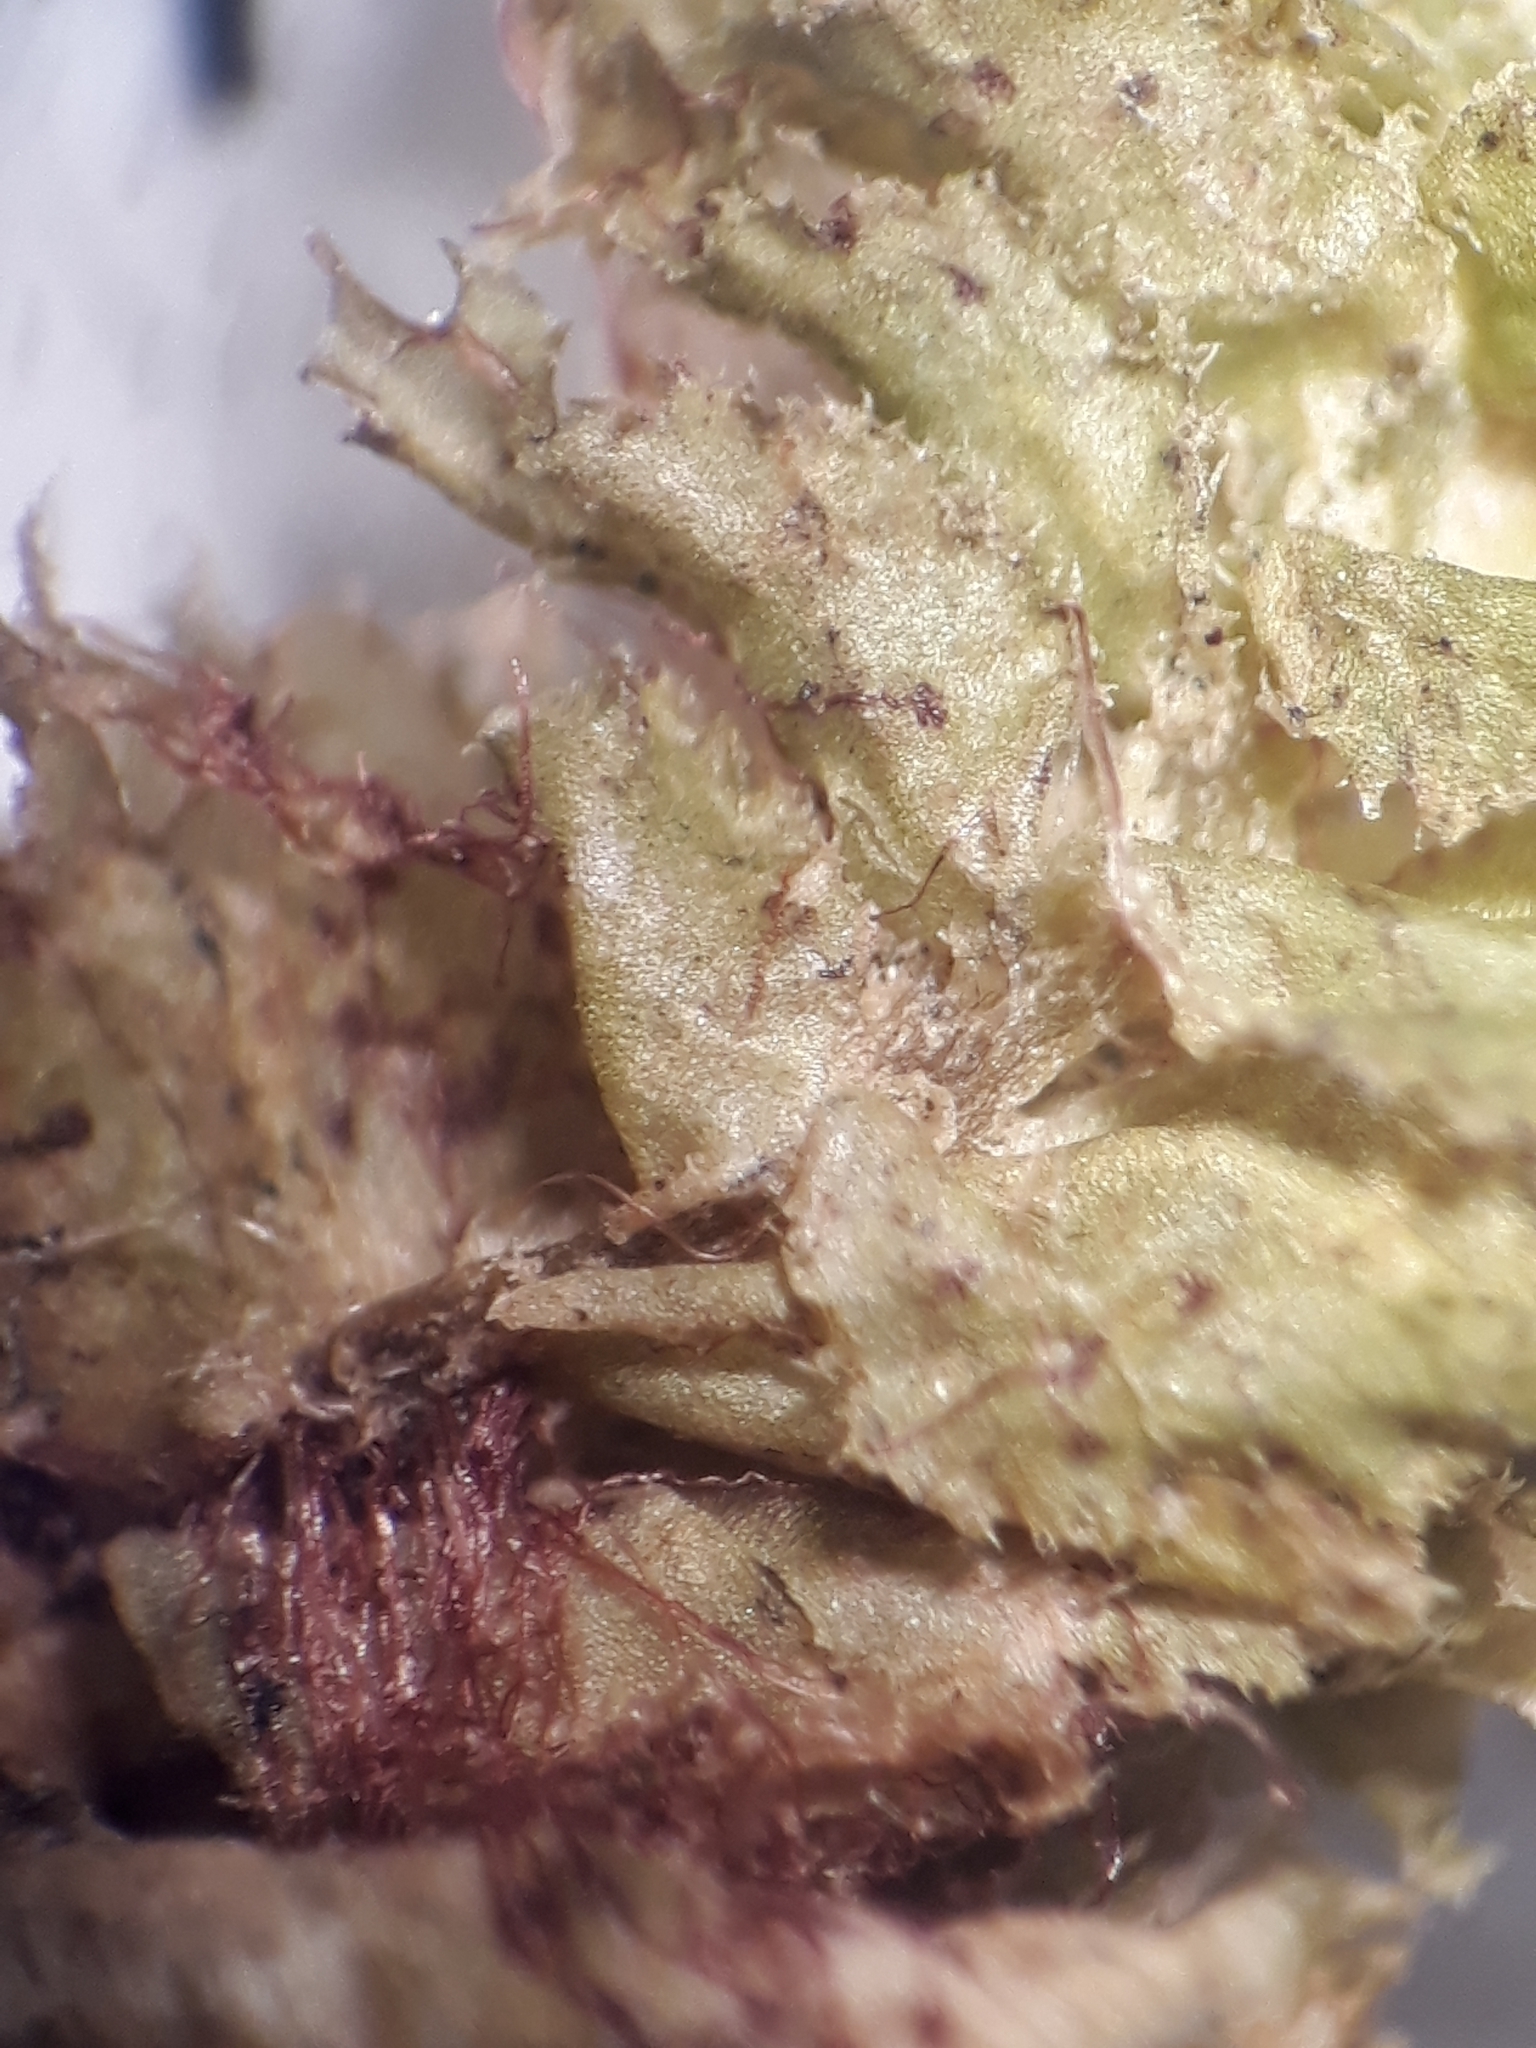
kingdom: Plantae
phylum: Marchantiophyta
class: Jungermanniopsida
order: Jungermanniales
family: Schistochilaceae
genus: Schistochila
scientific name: Schistochila pinnatifolia
